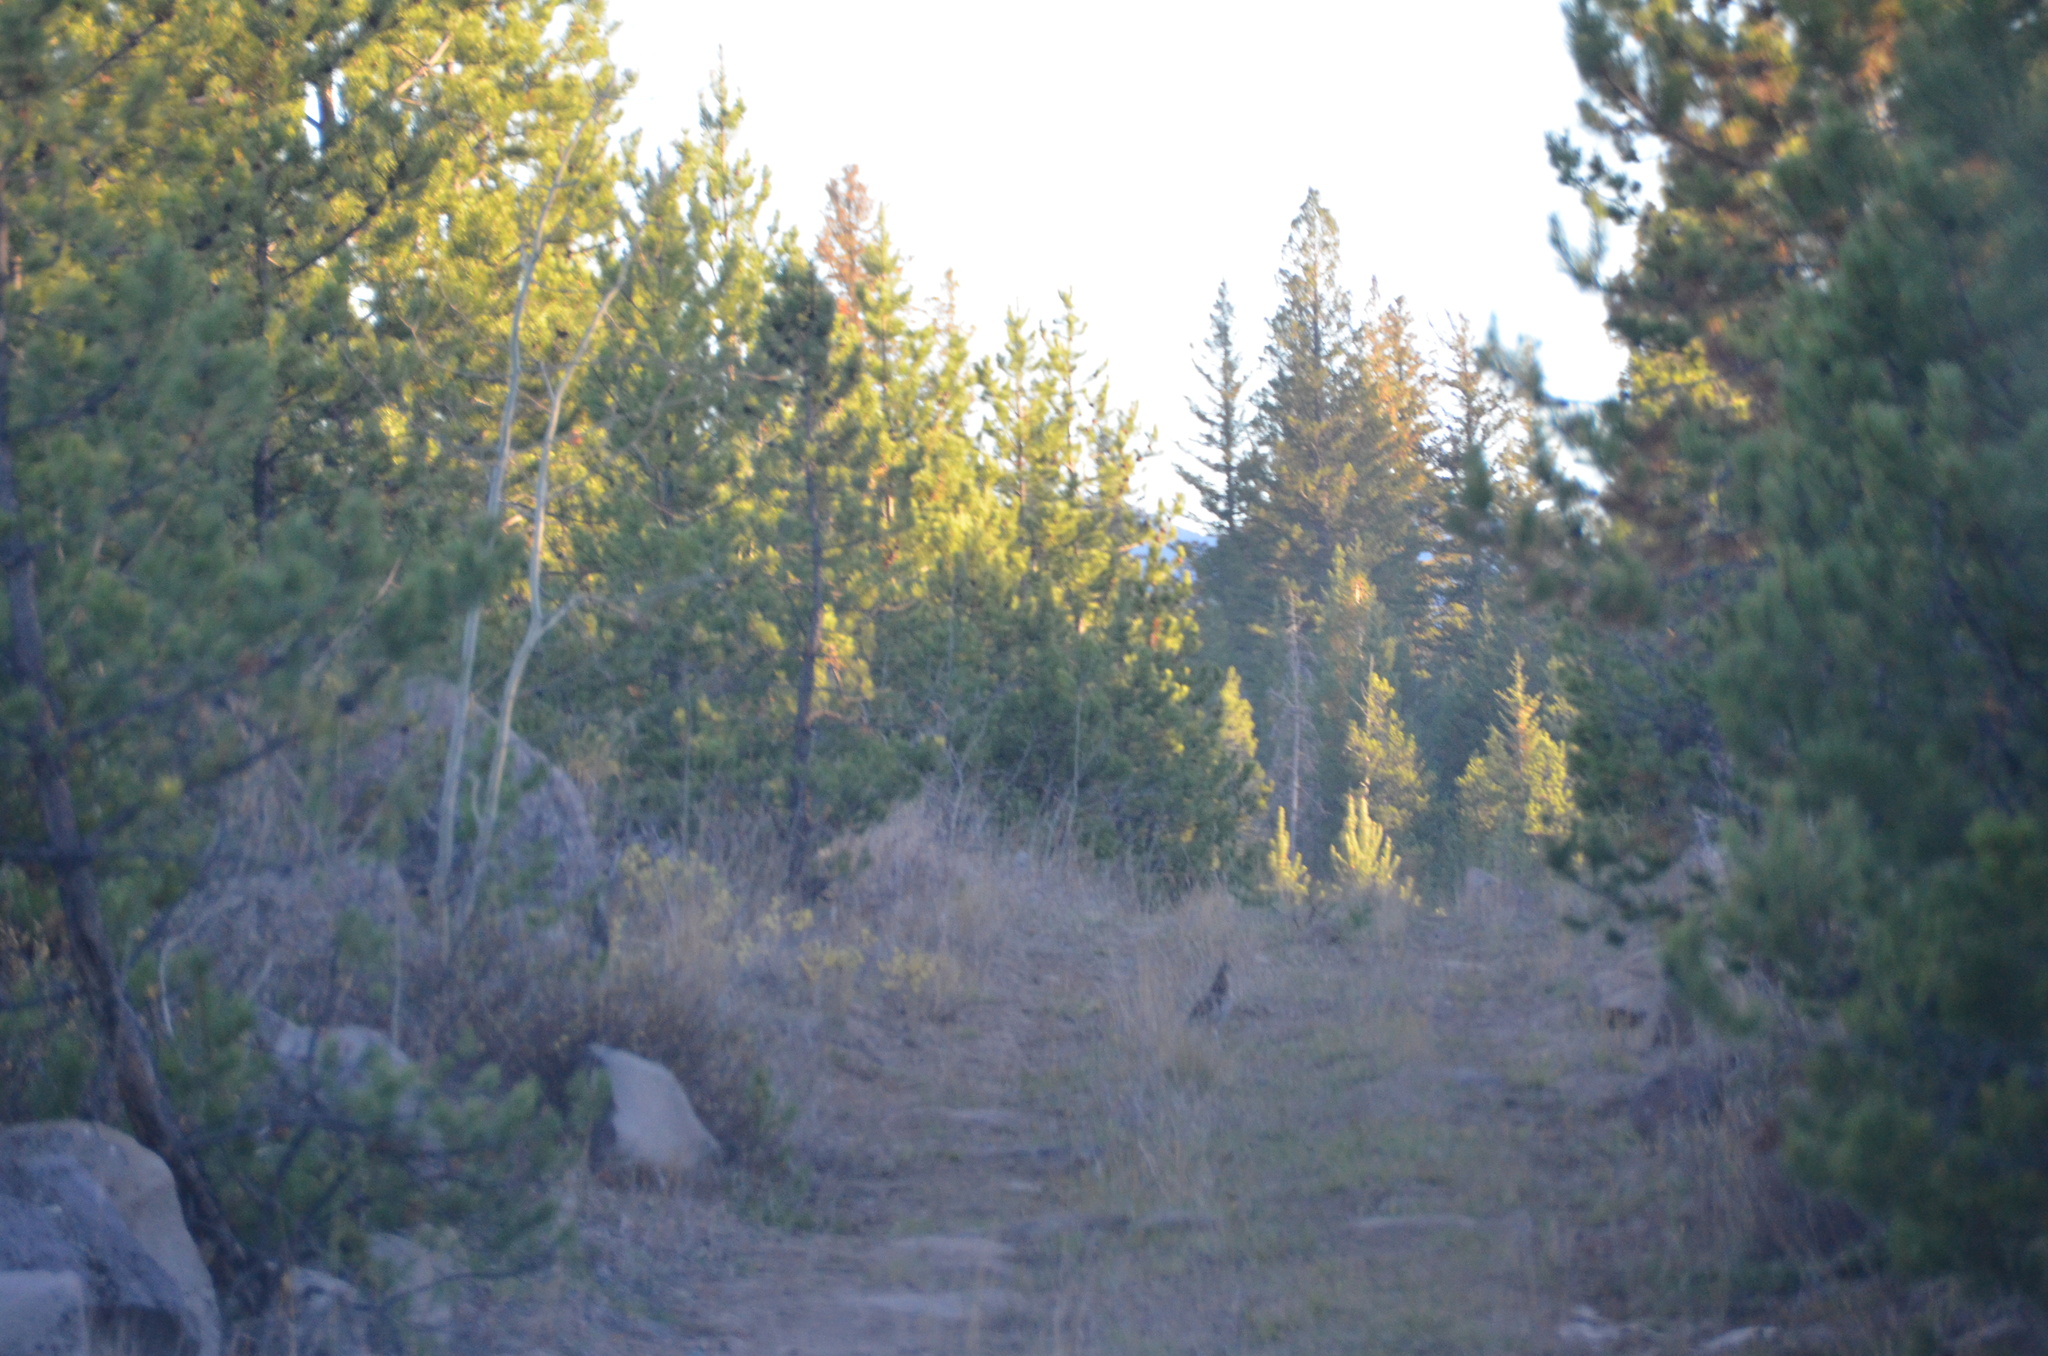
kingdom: Animalia
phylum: Chordata
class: Aves
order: Galliformes
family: Phasianidae
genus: Bonasa
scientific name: Bonasa umbellus
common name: Ruffed grouse
